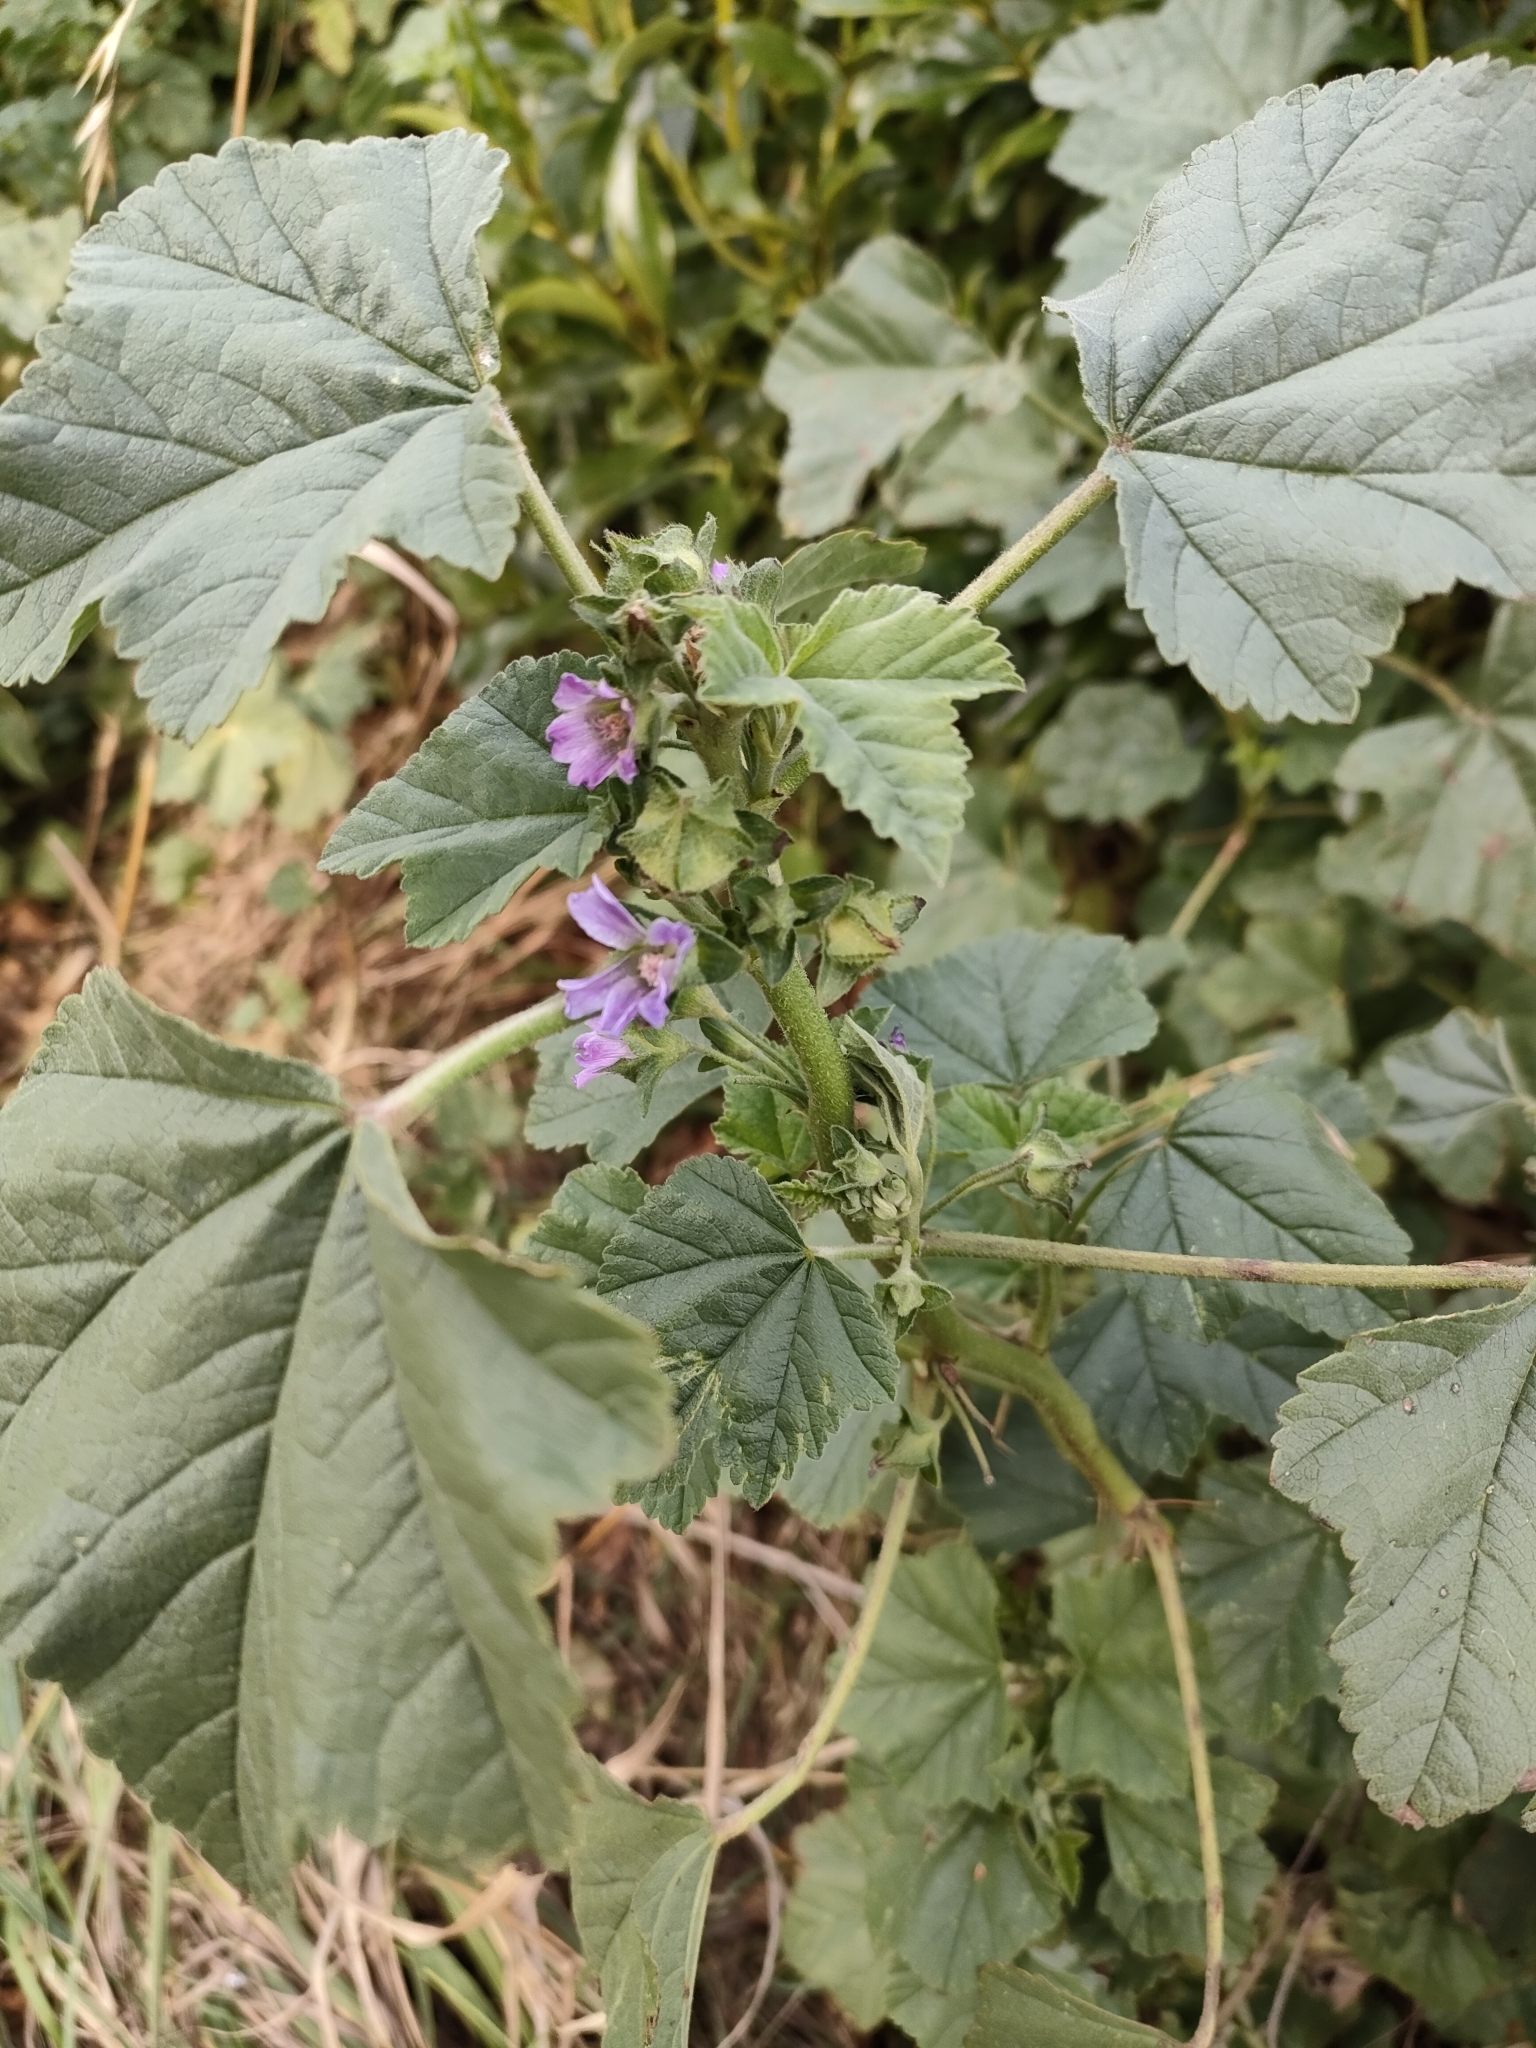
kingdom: Plantae
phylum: Tracheophyta
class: Magnoliopsida
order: Malvales
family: Malvaceae
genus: Malva
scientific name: Malva multiflora
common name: Cheeseweed
